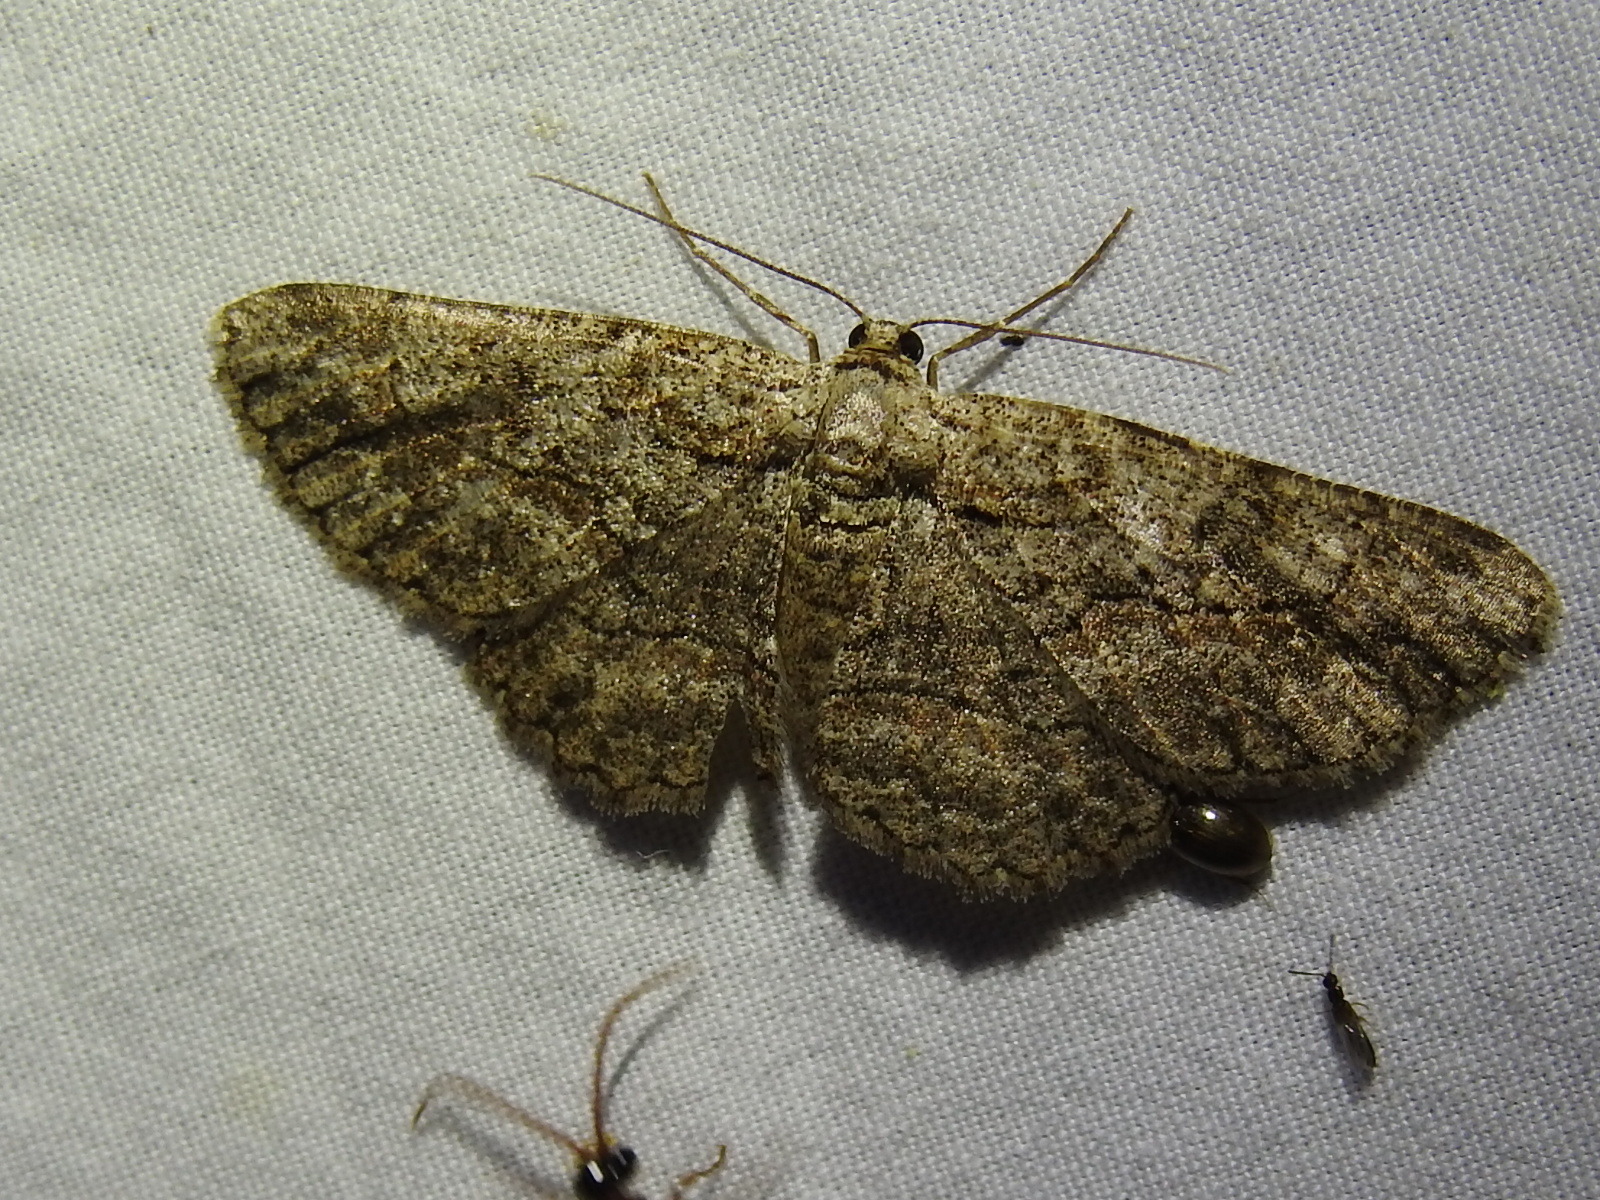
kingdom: Animalia
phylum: Arthropoda
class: Insecta
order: Lepidoptera
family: Geometridae
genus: Anavitrinella
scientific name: Anavitrinella pampinaria
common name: Common gray
